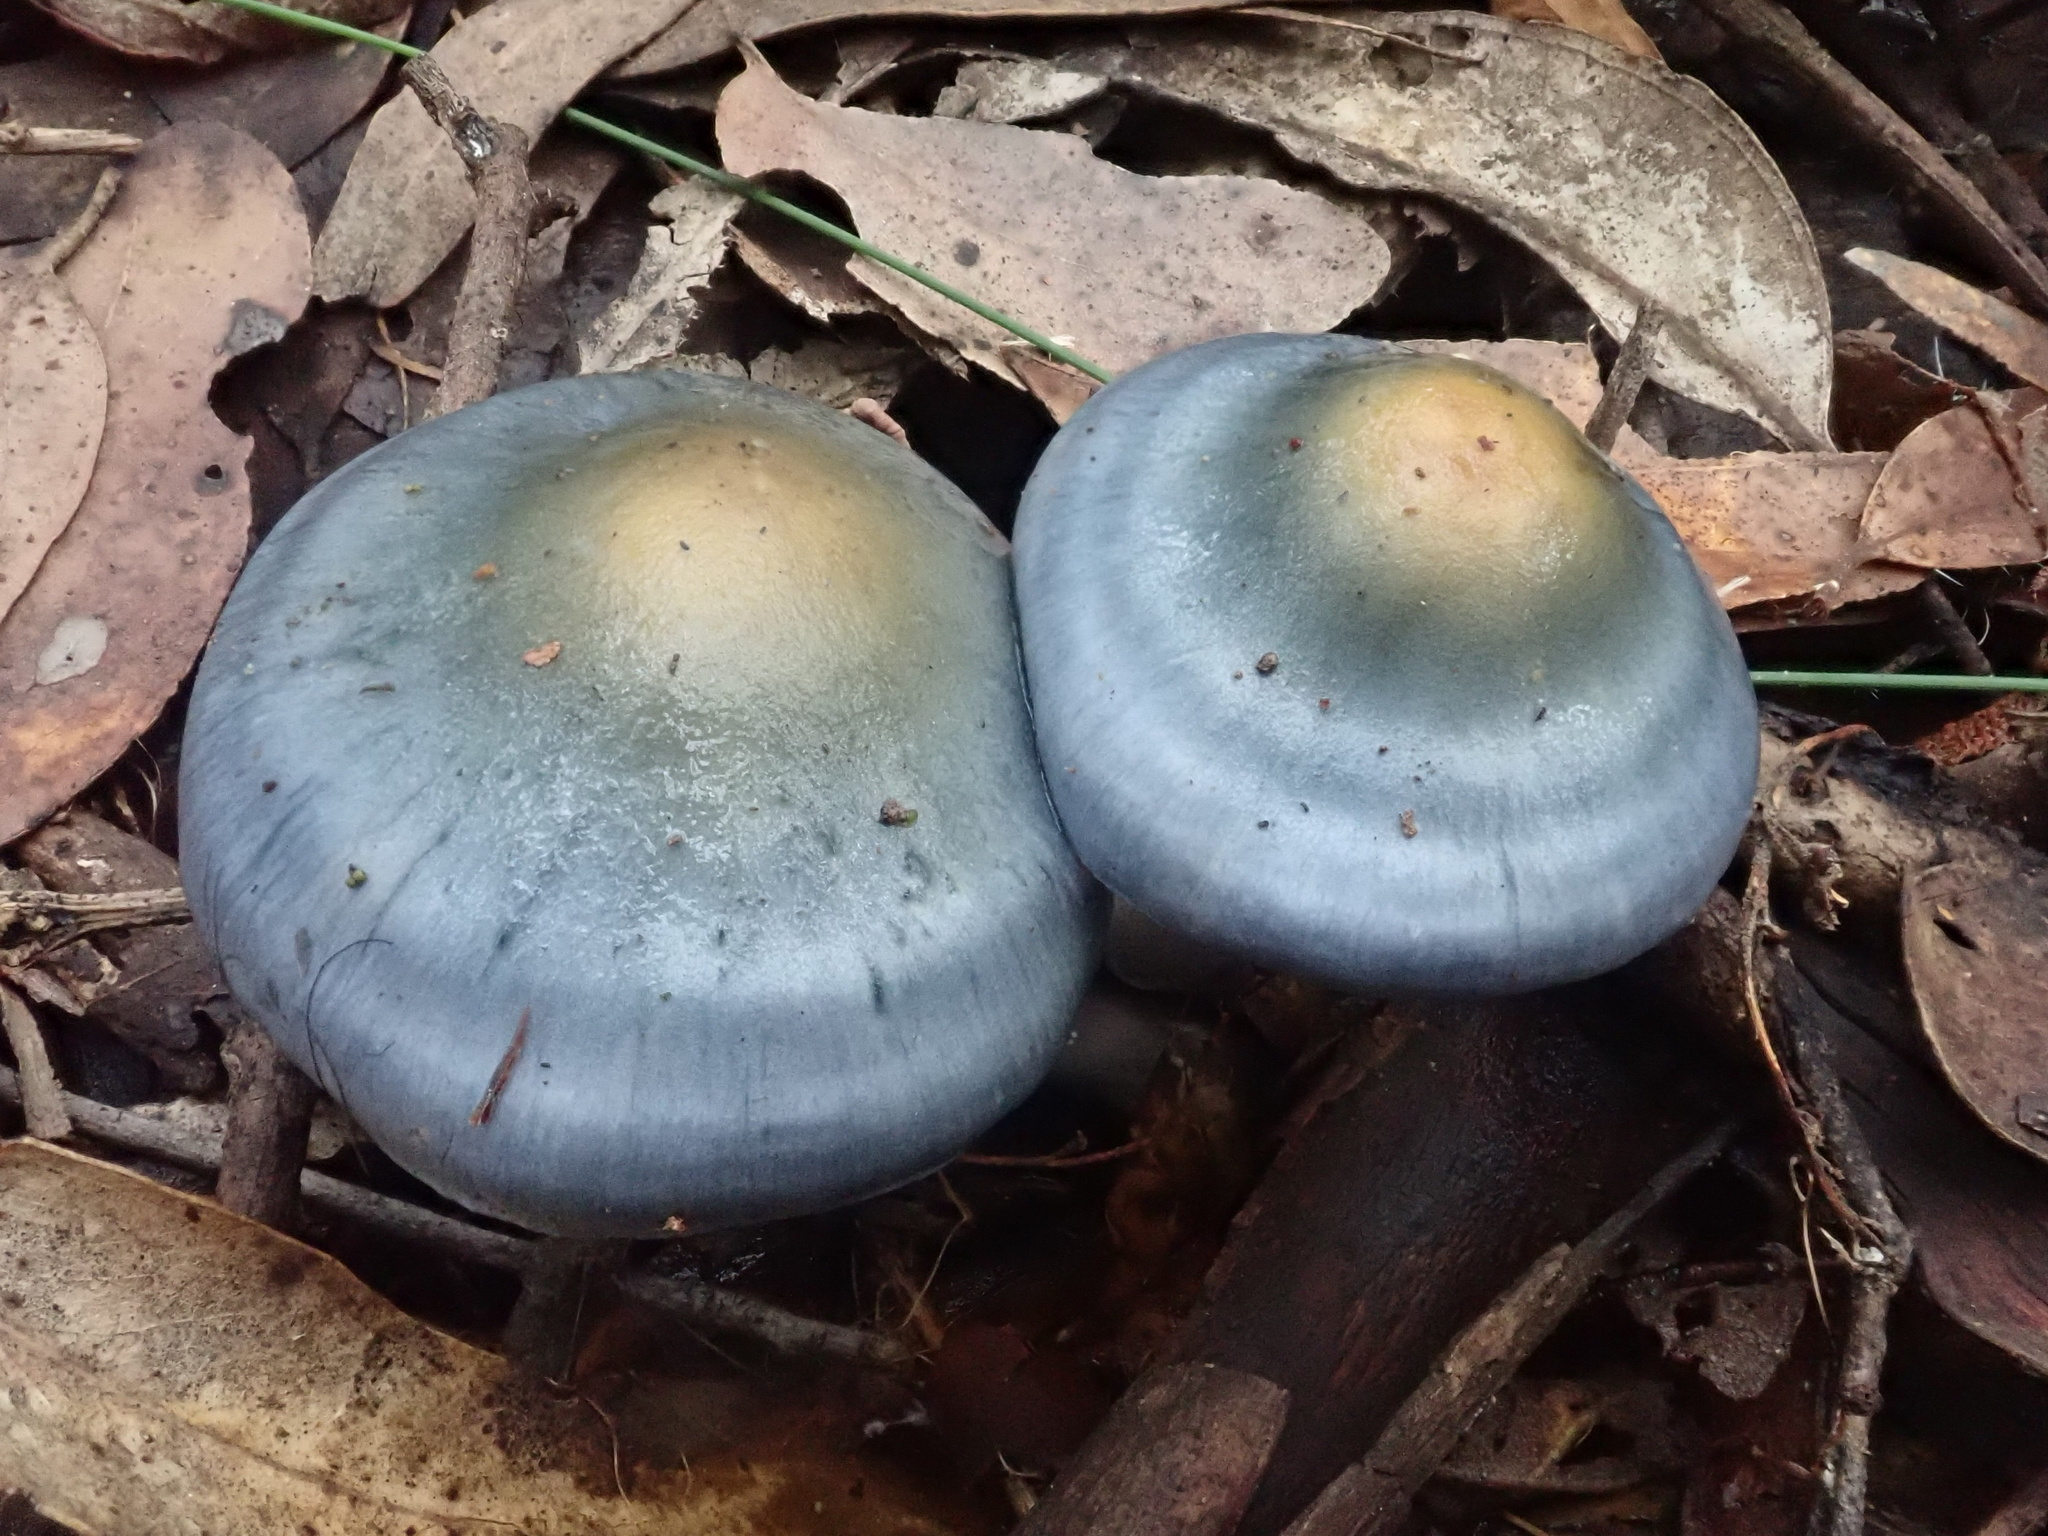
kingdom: Fungi
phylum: Basidiomycota
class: Agaricomycetes
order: Agaricales
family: Cortinariaceae
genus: Cortinarius
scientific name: Cortinarius rotundisporus
